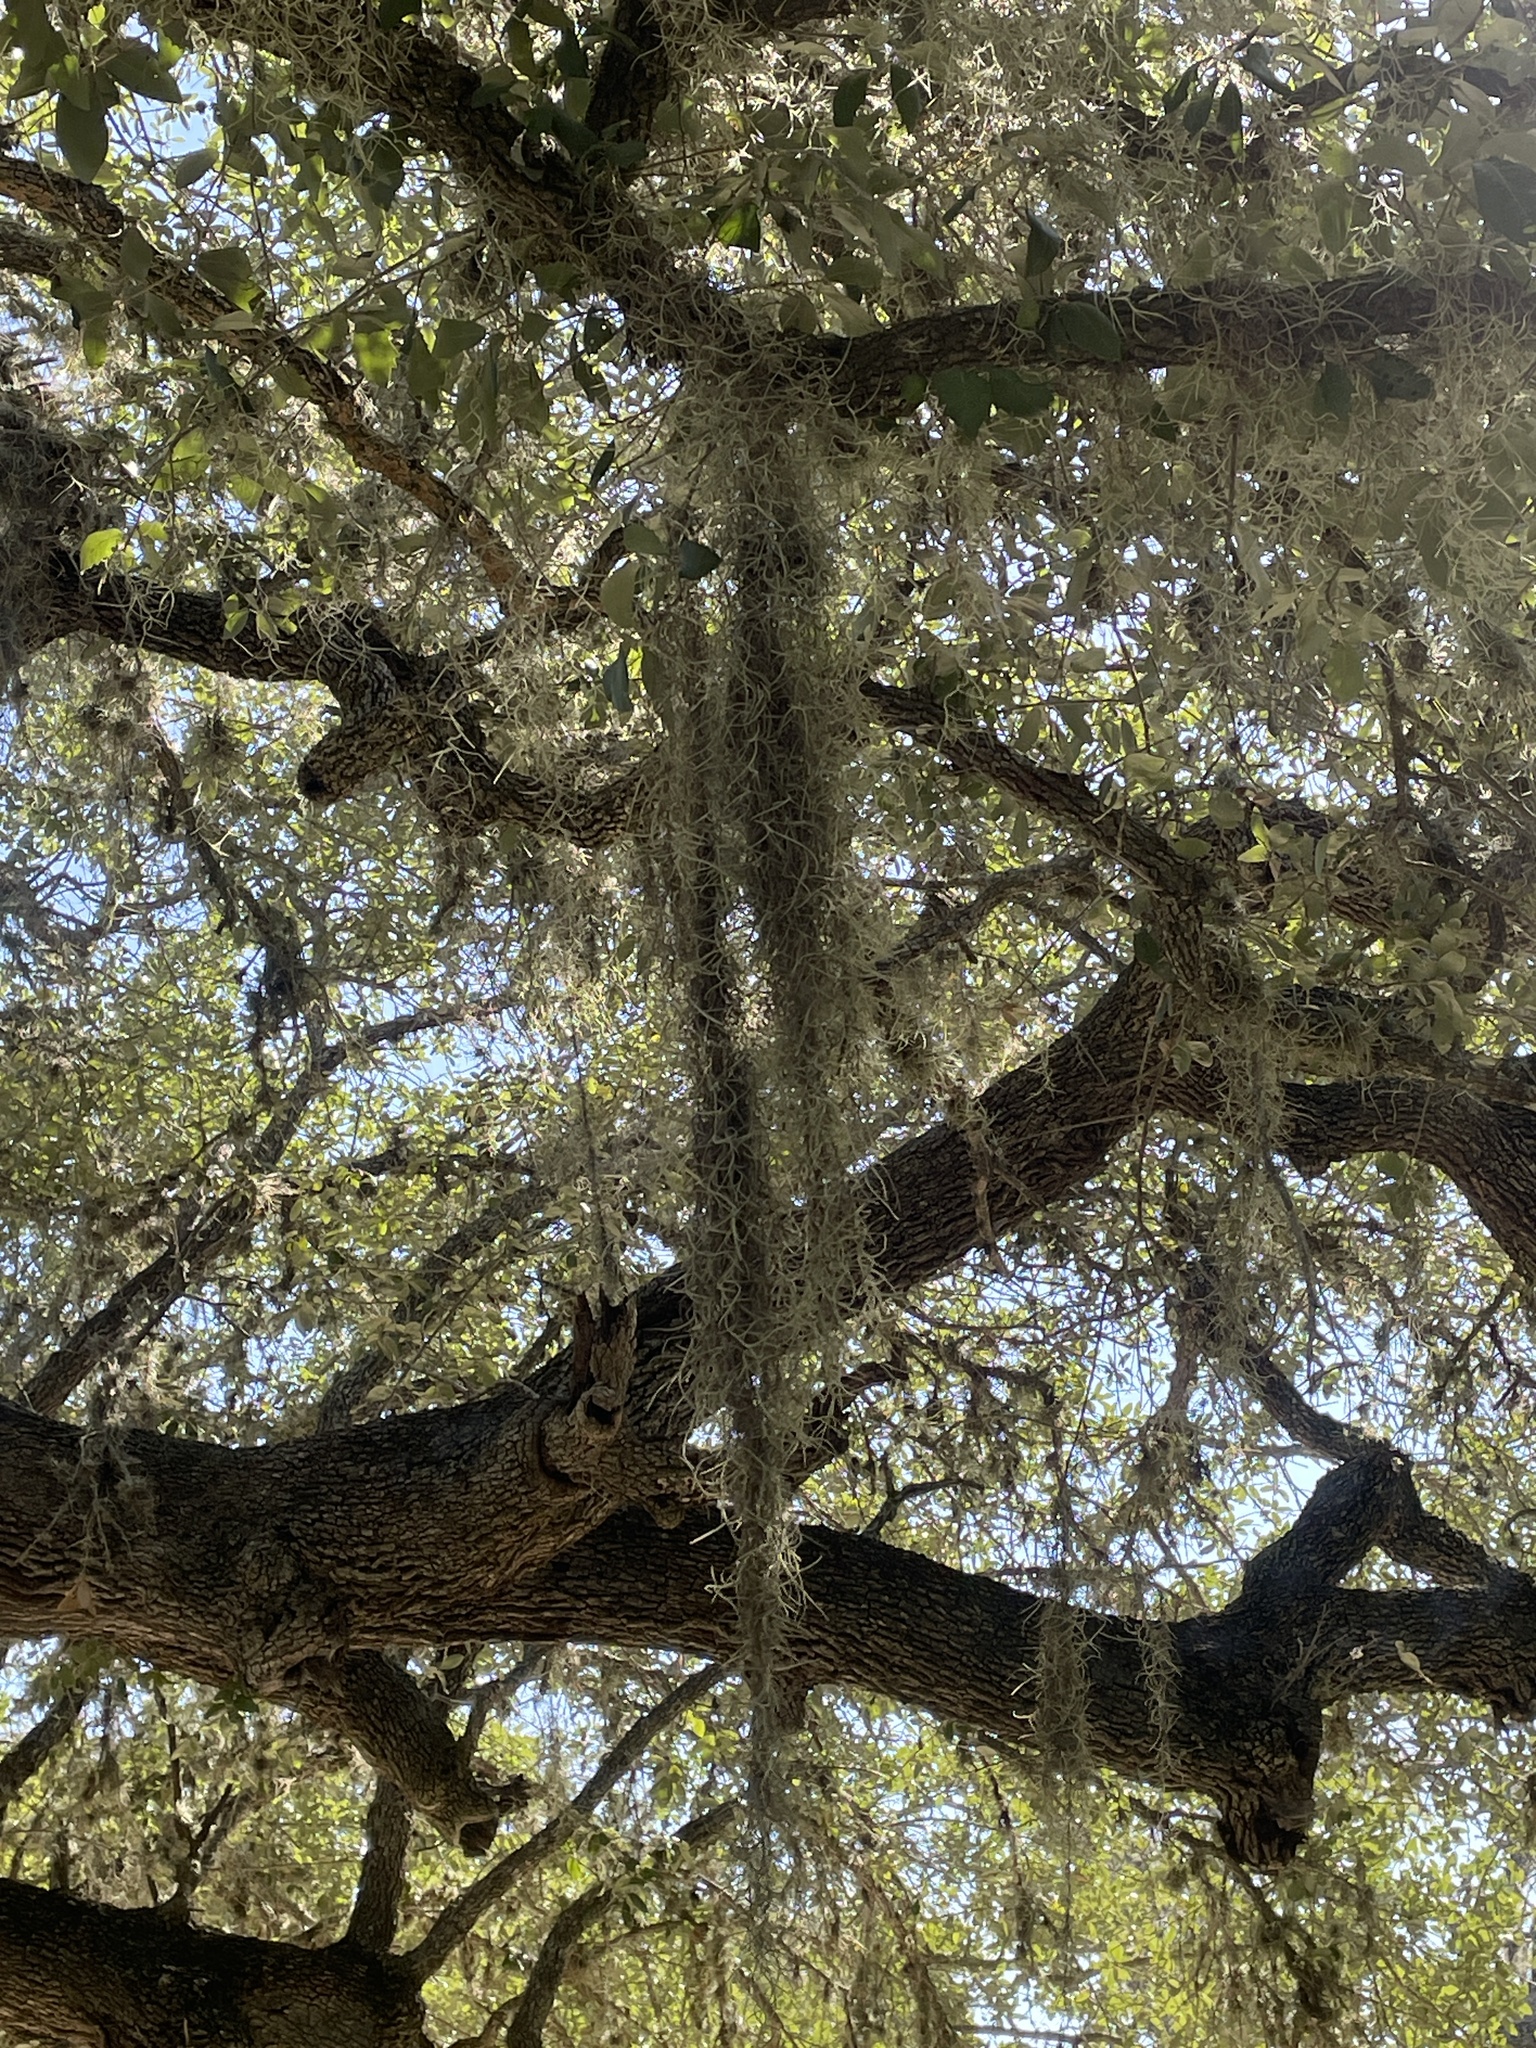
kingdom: Plantae
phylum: Tracheophyta
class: Liliopsida
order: Poales
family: Bromeliaceae
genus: Tillandsia
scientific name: Tillandsia usneoides
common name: Spanish moss
